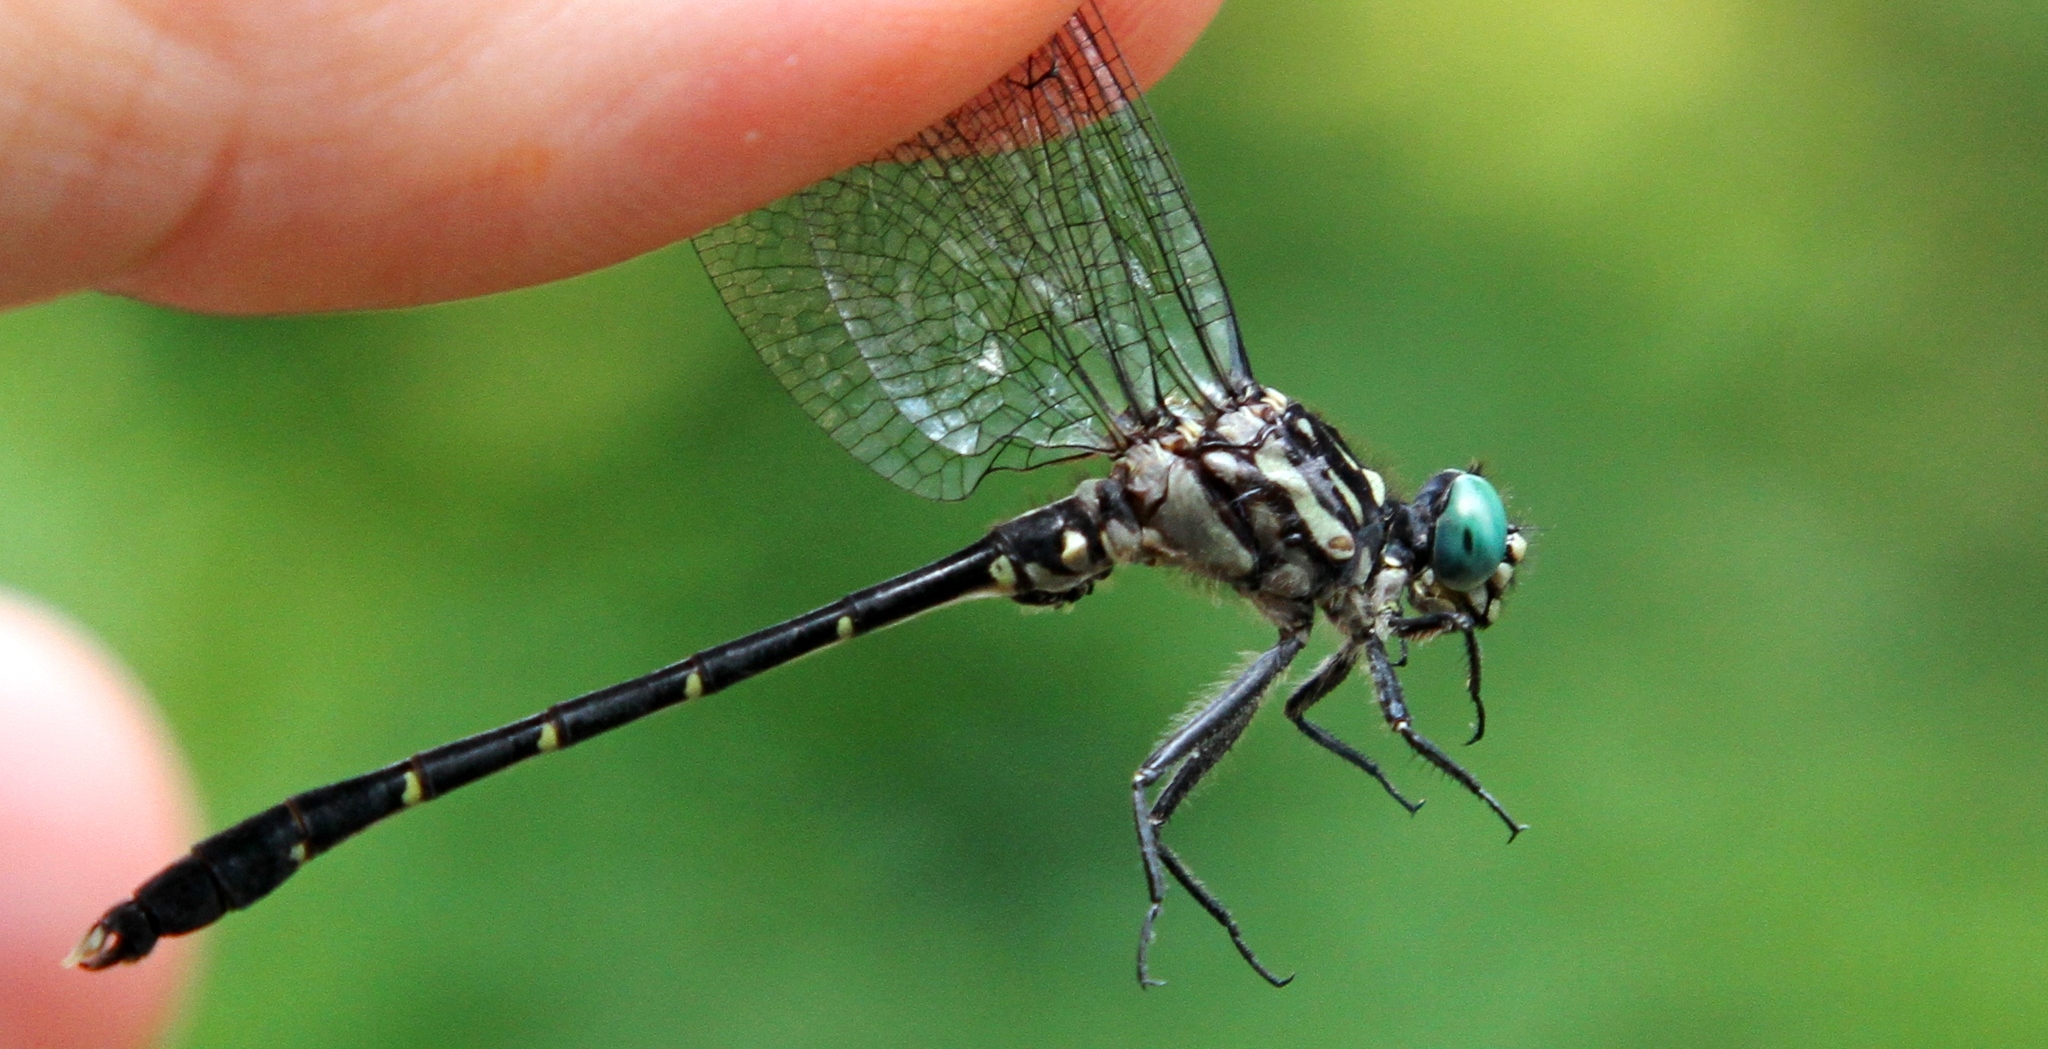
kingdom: Animalia
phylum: Arthropoda
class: Insecta
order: Odonata
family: Gomphidae
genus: Stylogomphus
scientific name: Stylogomphus albistylus
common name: Eastern least clubtail
